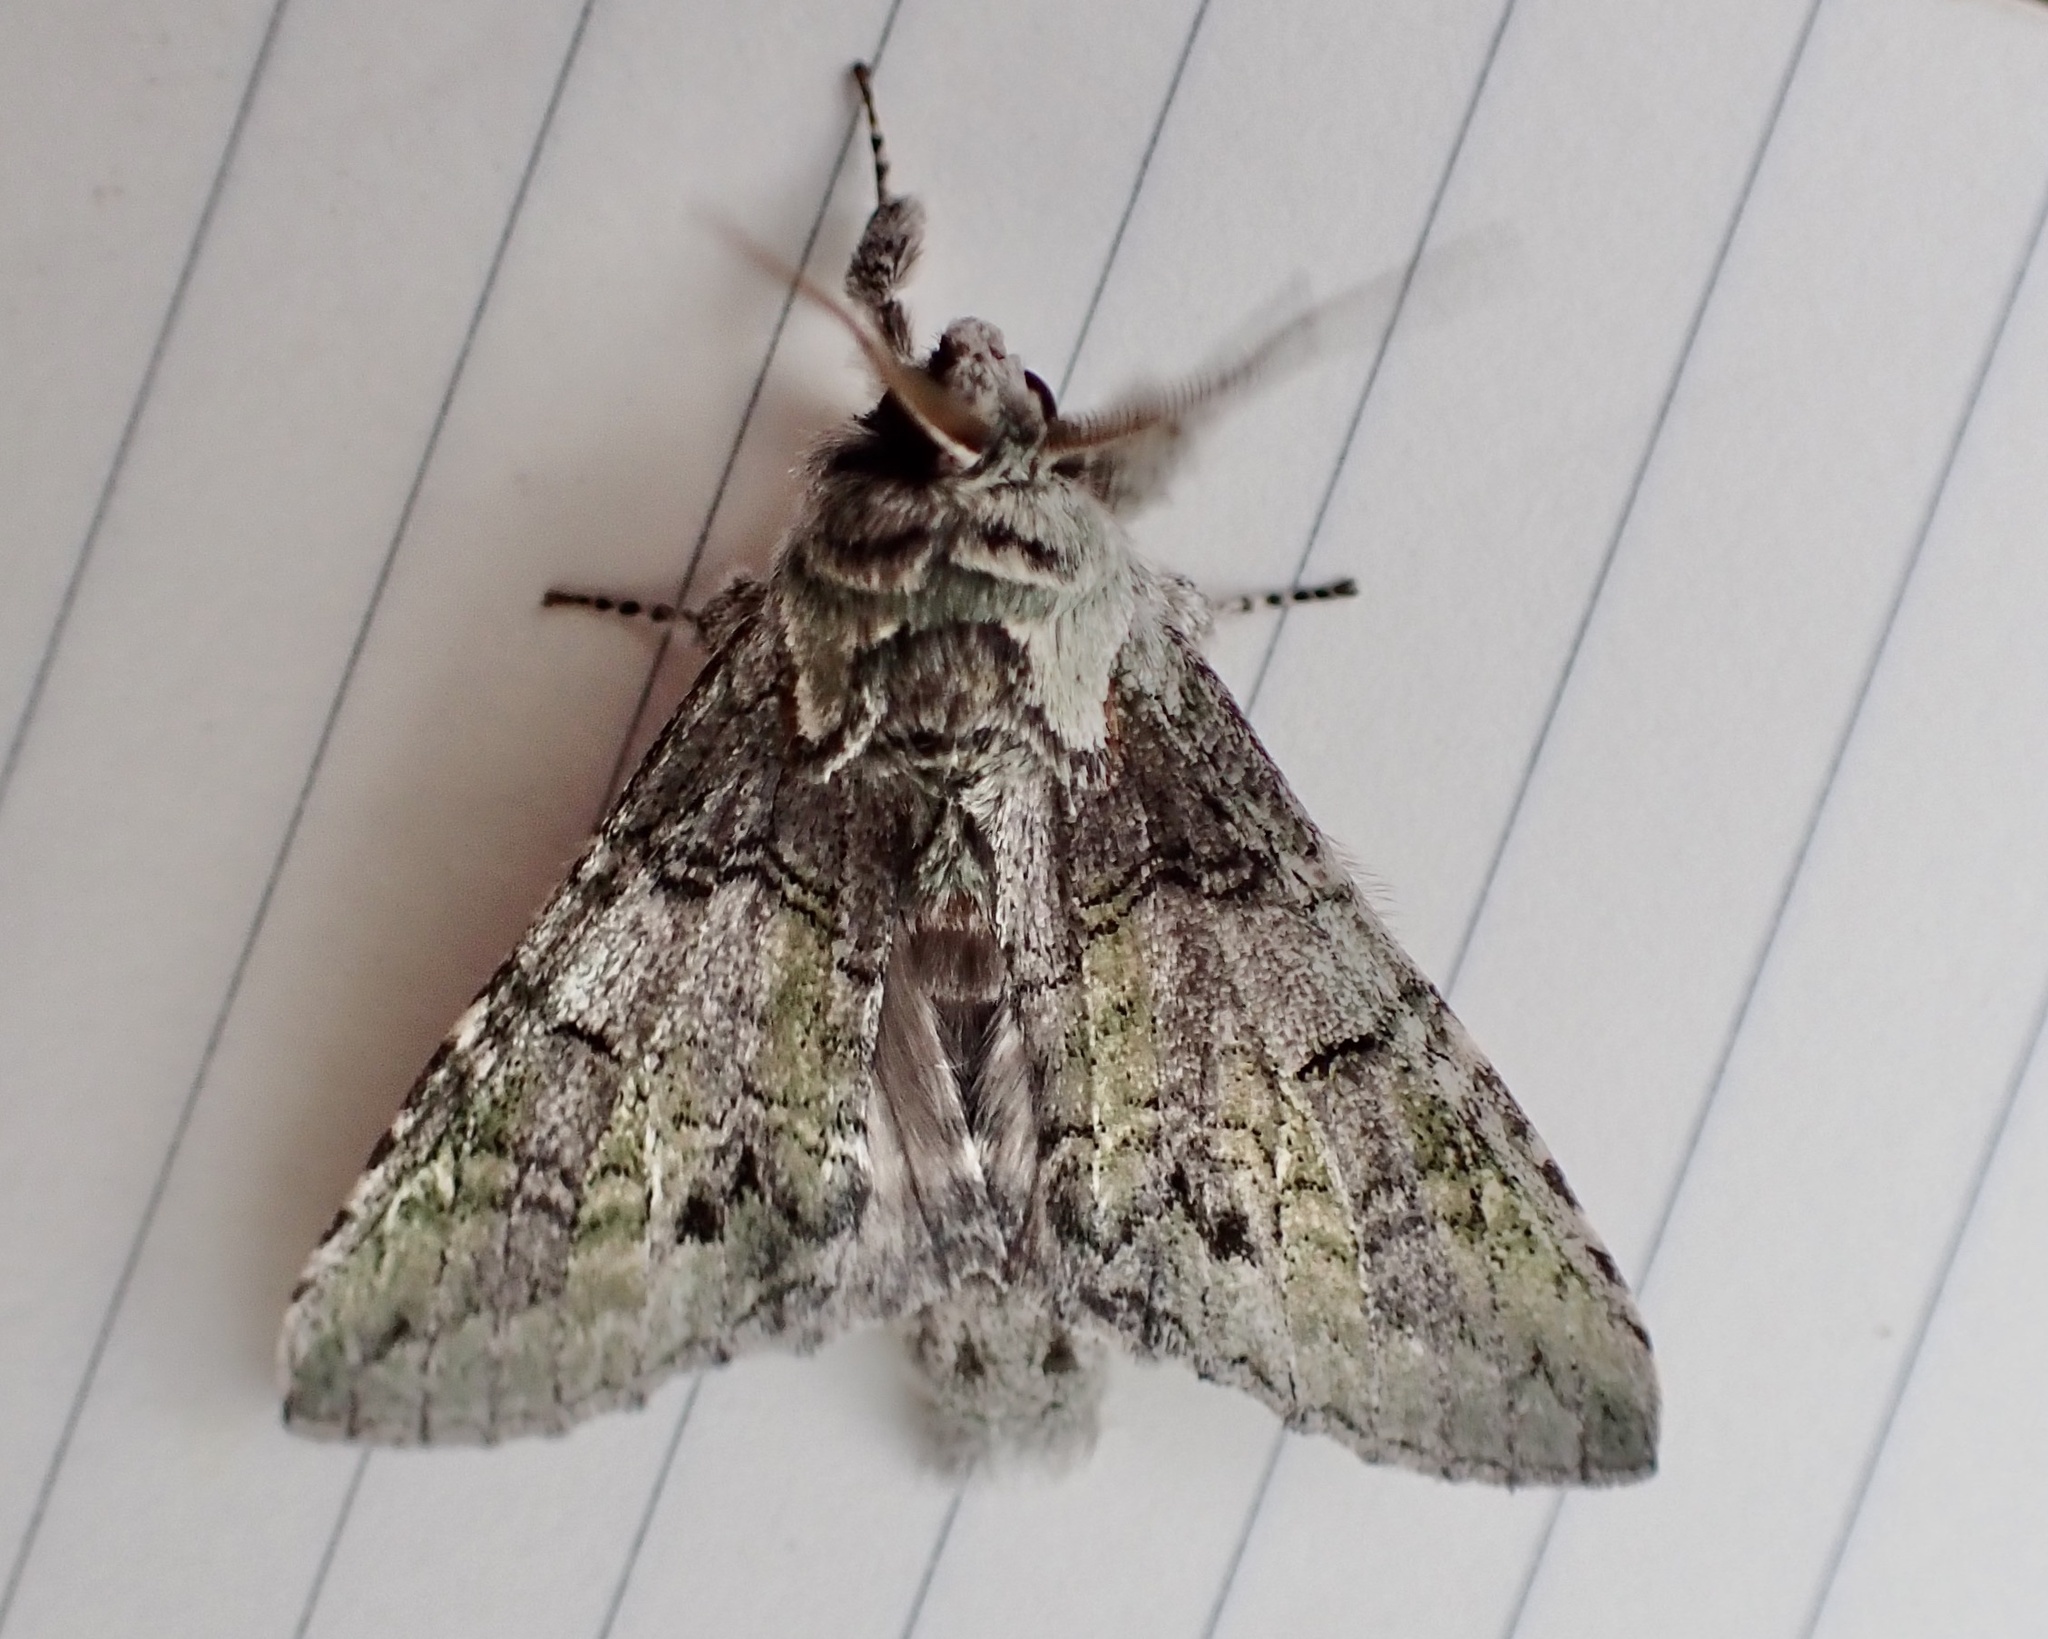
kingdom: Animalia
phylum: Arthropoda
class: Insecta
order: Lepidoptera
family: Notodontidae
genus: Macrurocampa
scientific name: Macrurocampa marthesia
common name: Mottled prominent
